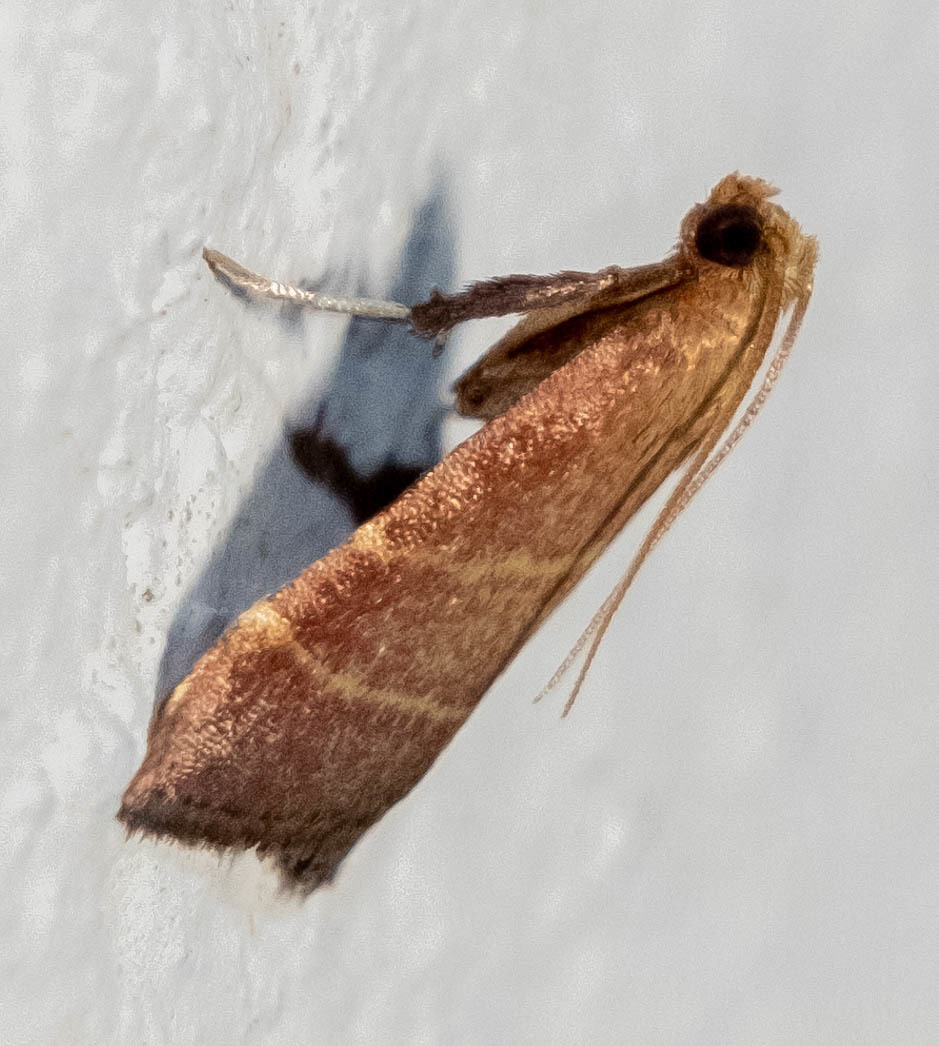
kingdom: Animalia
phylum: Arthropoda
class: Insecta
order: Lepidoptera
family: Pyralidae
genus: Arta
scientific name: Arta statalis
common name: Posturing arta moth
